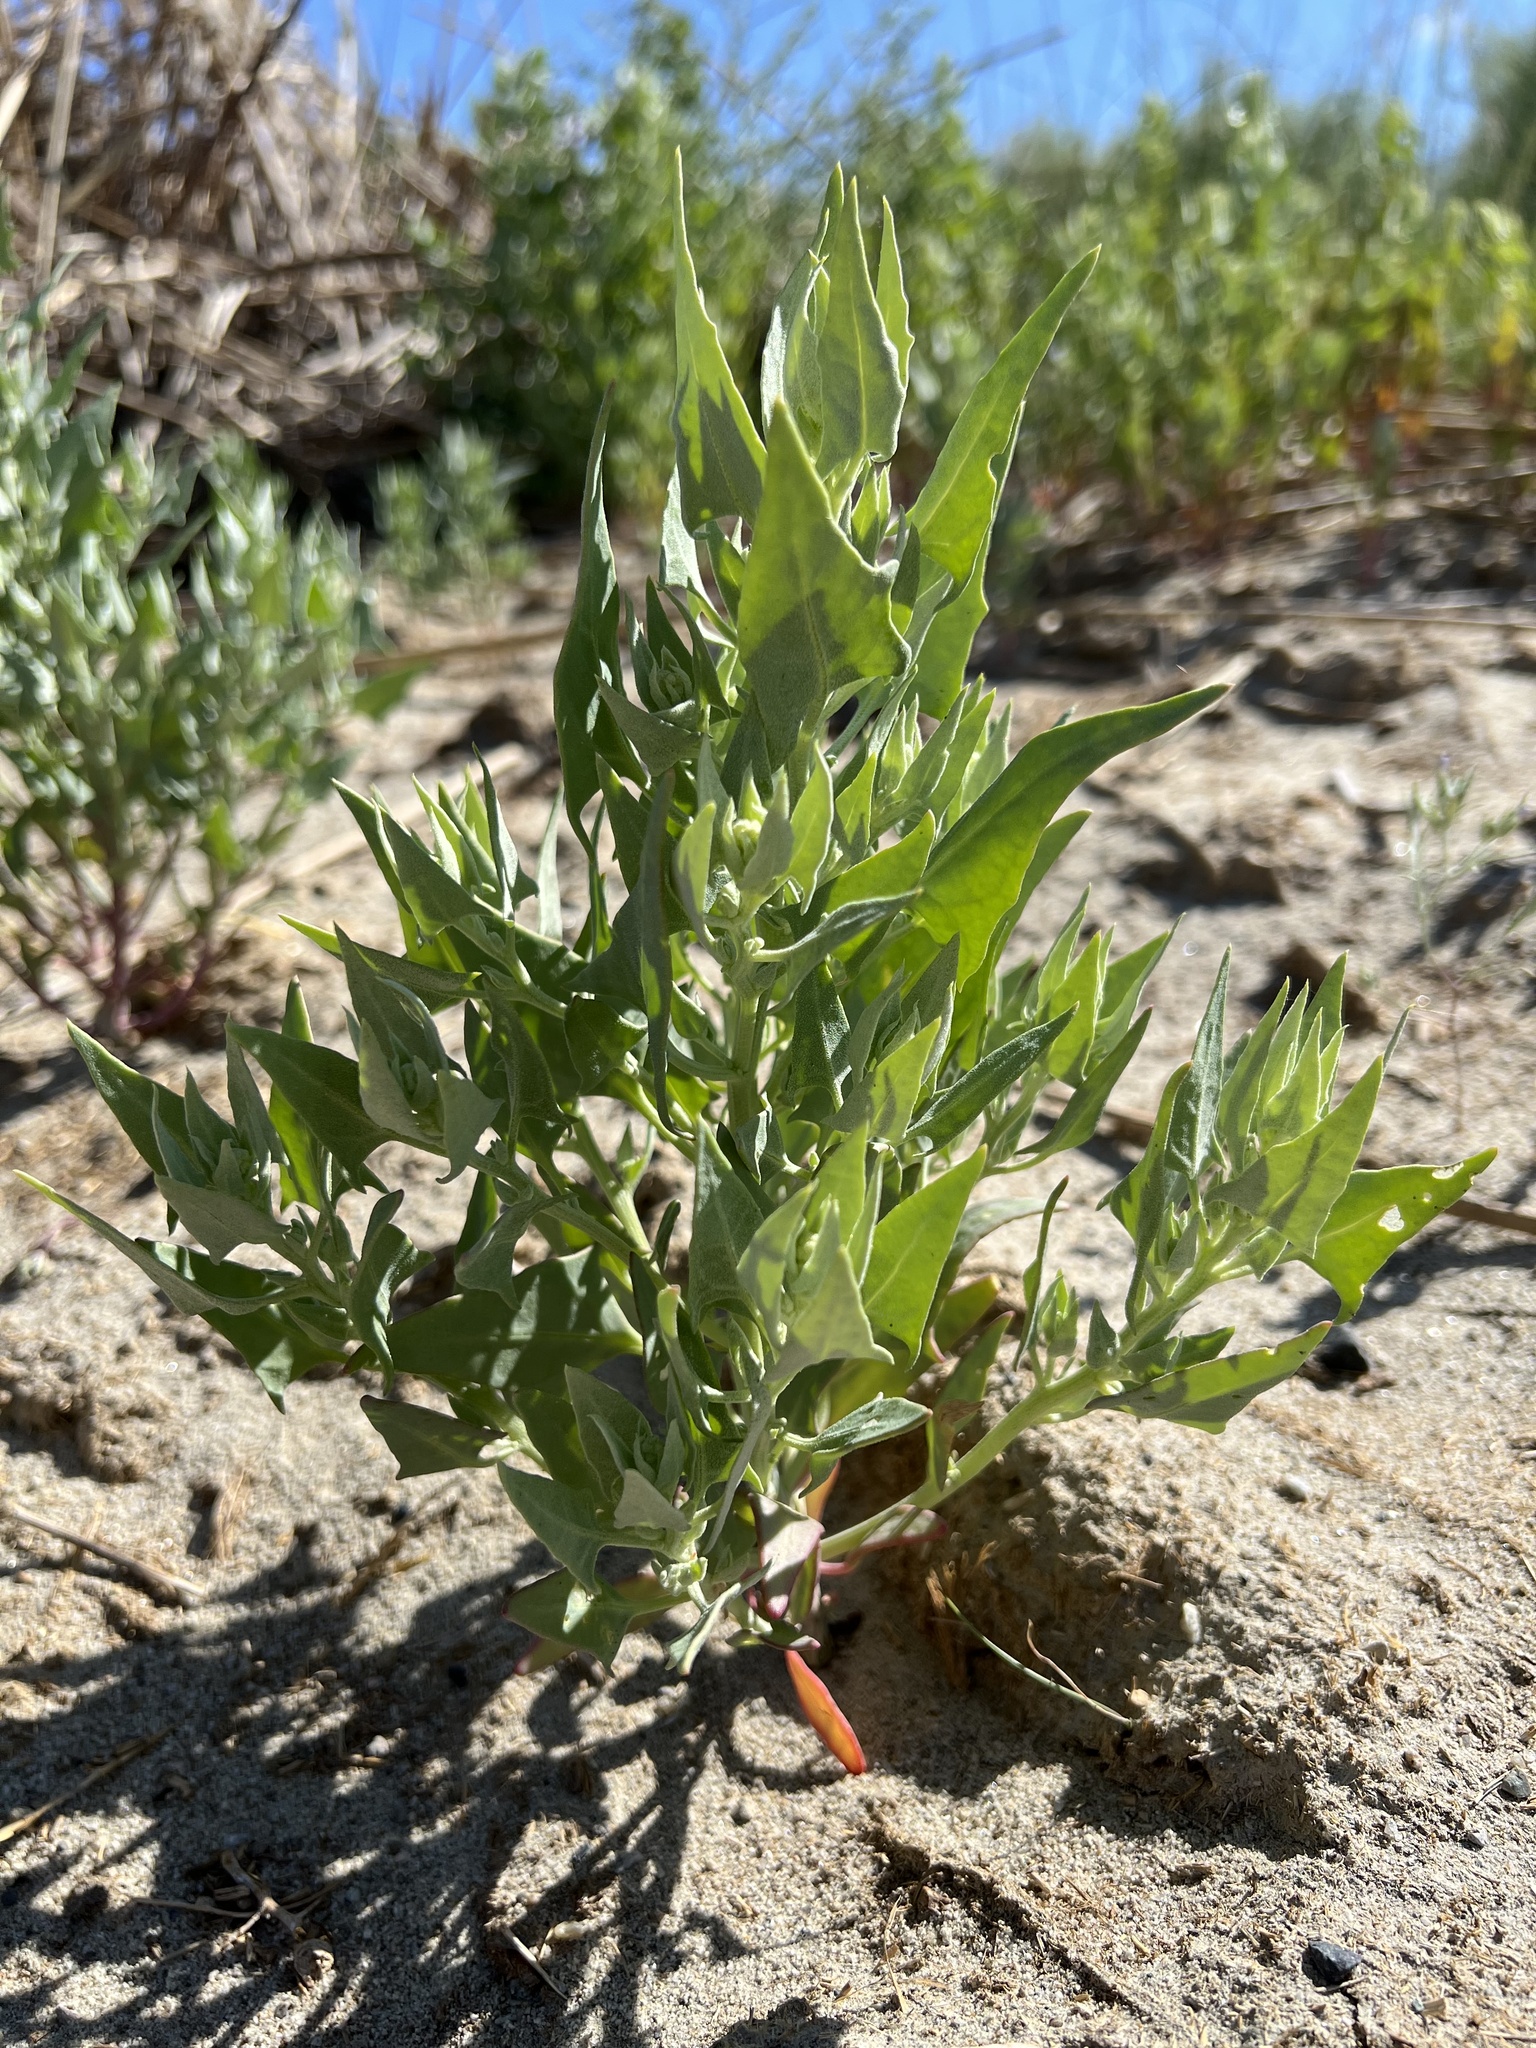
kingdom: Plantae
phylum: Tracheophyta
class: Magnoliopsida
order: Caryophyllales
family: Amaranthaceae
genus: Stutzia
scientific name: Stutzia covillei
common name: Coville's orach
